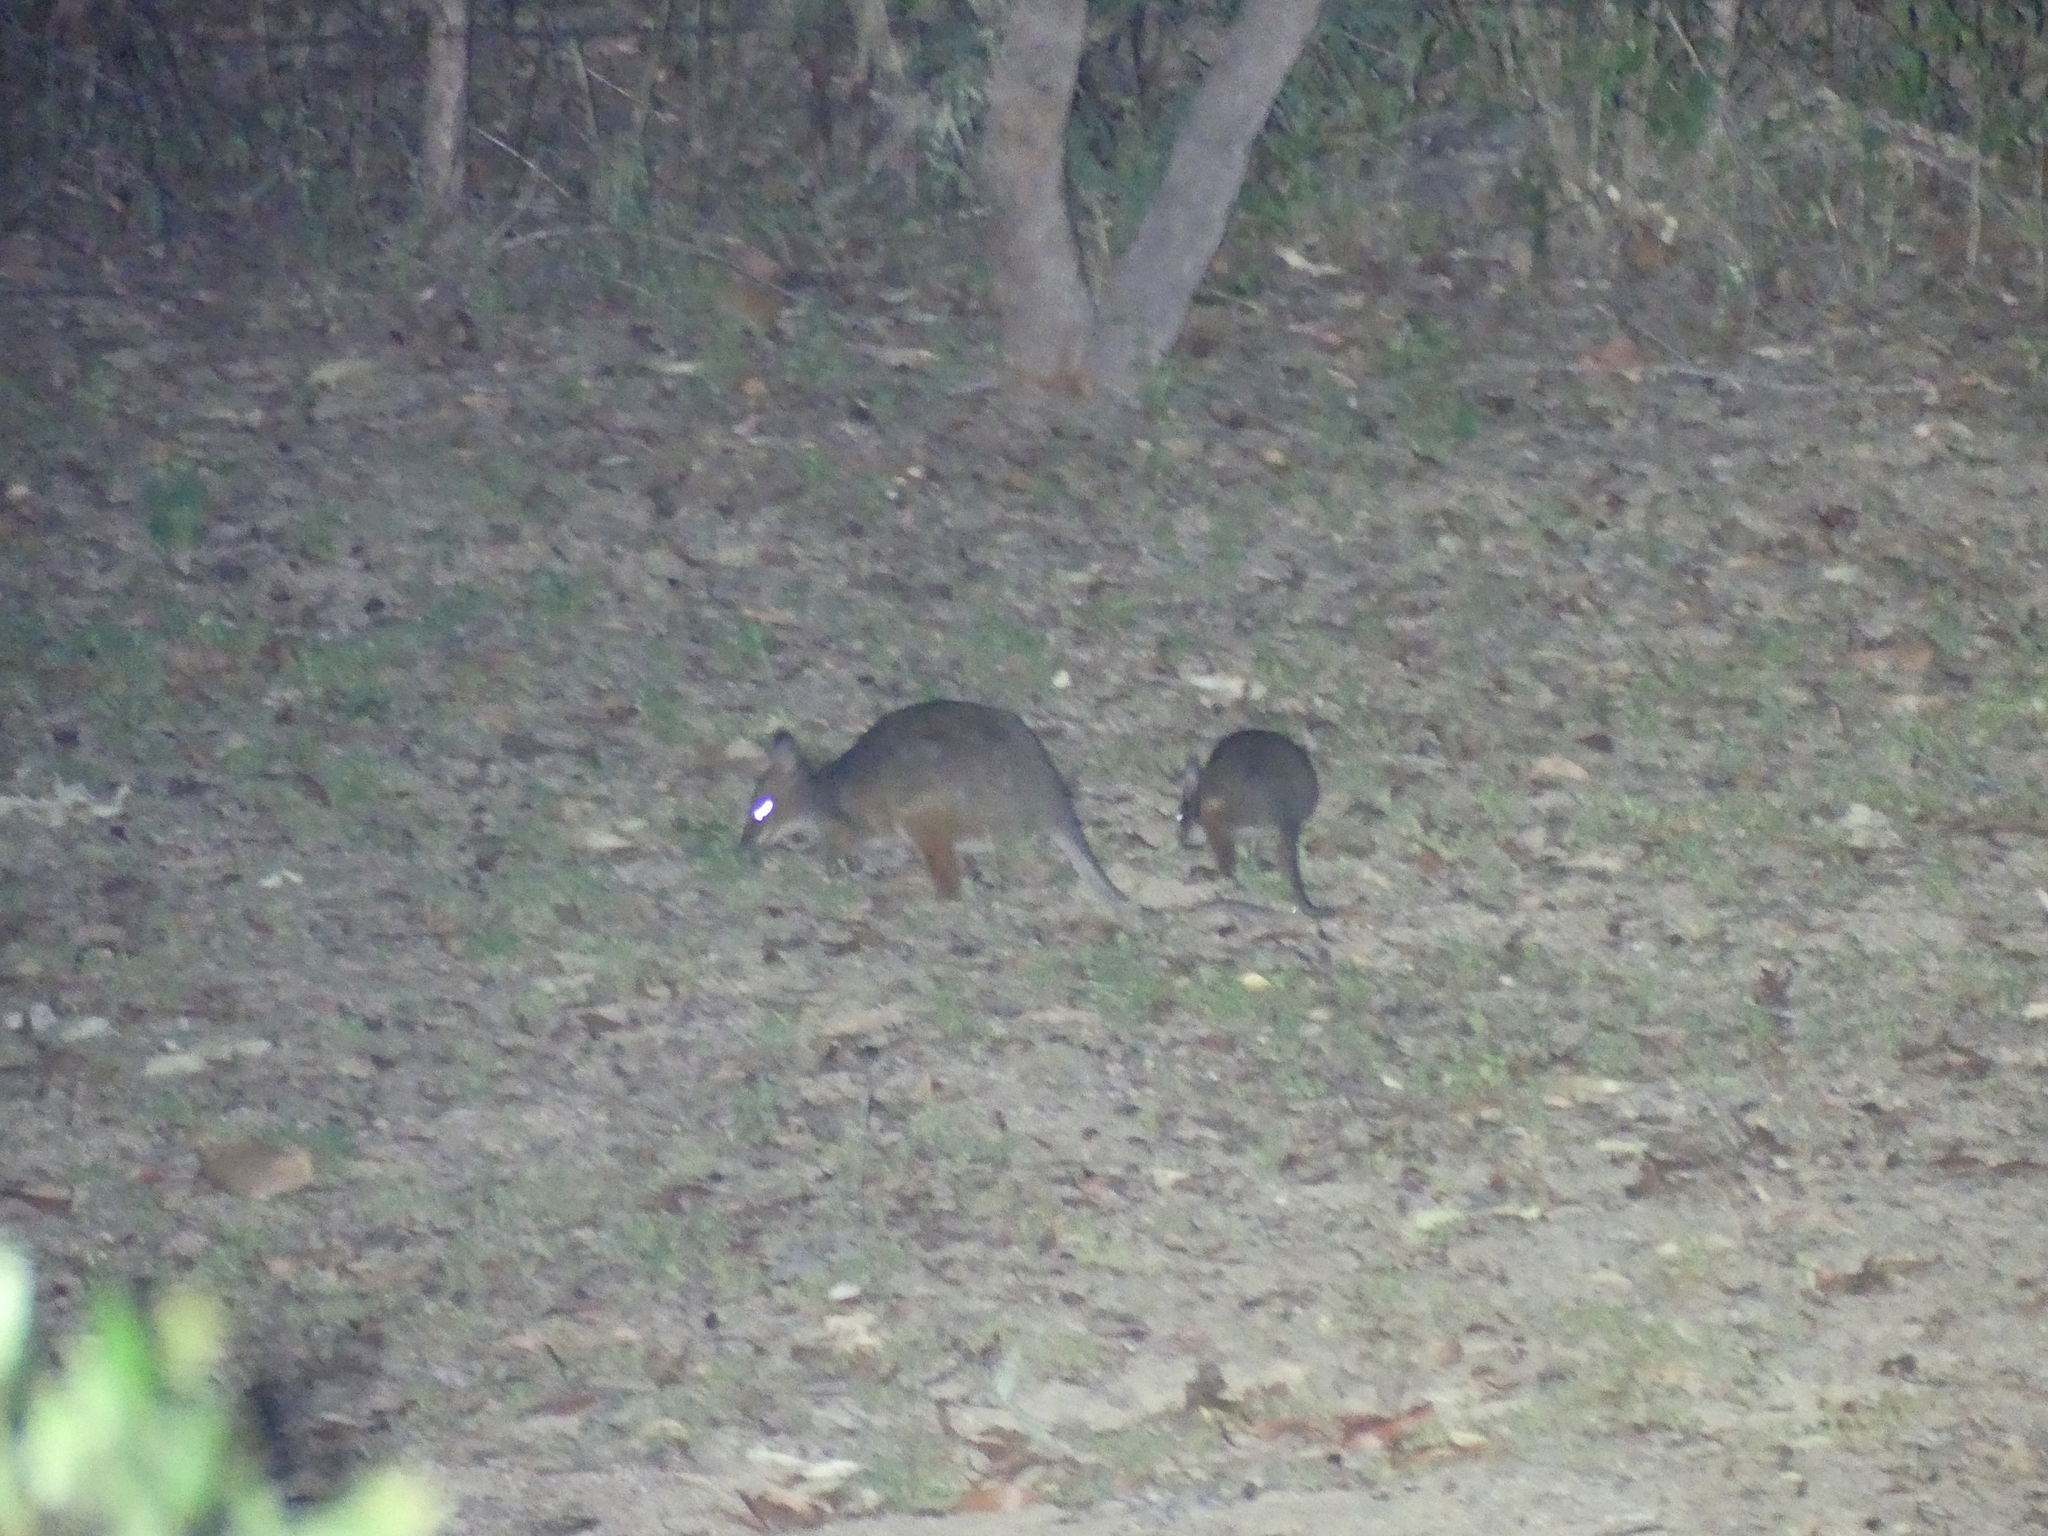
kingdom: Animalia
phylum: Chordata
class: Mammalia
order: Diprotodontia
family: Macropodidae
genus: Thylogale
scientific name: Thylogale stigmatica
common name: Red-legged pademelon
